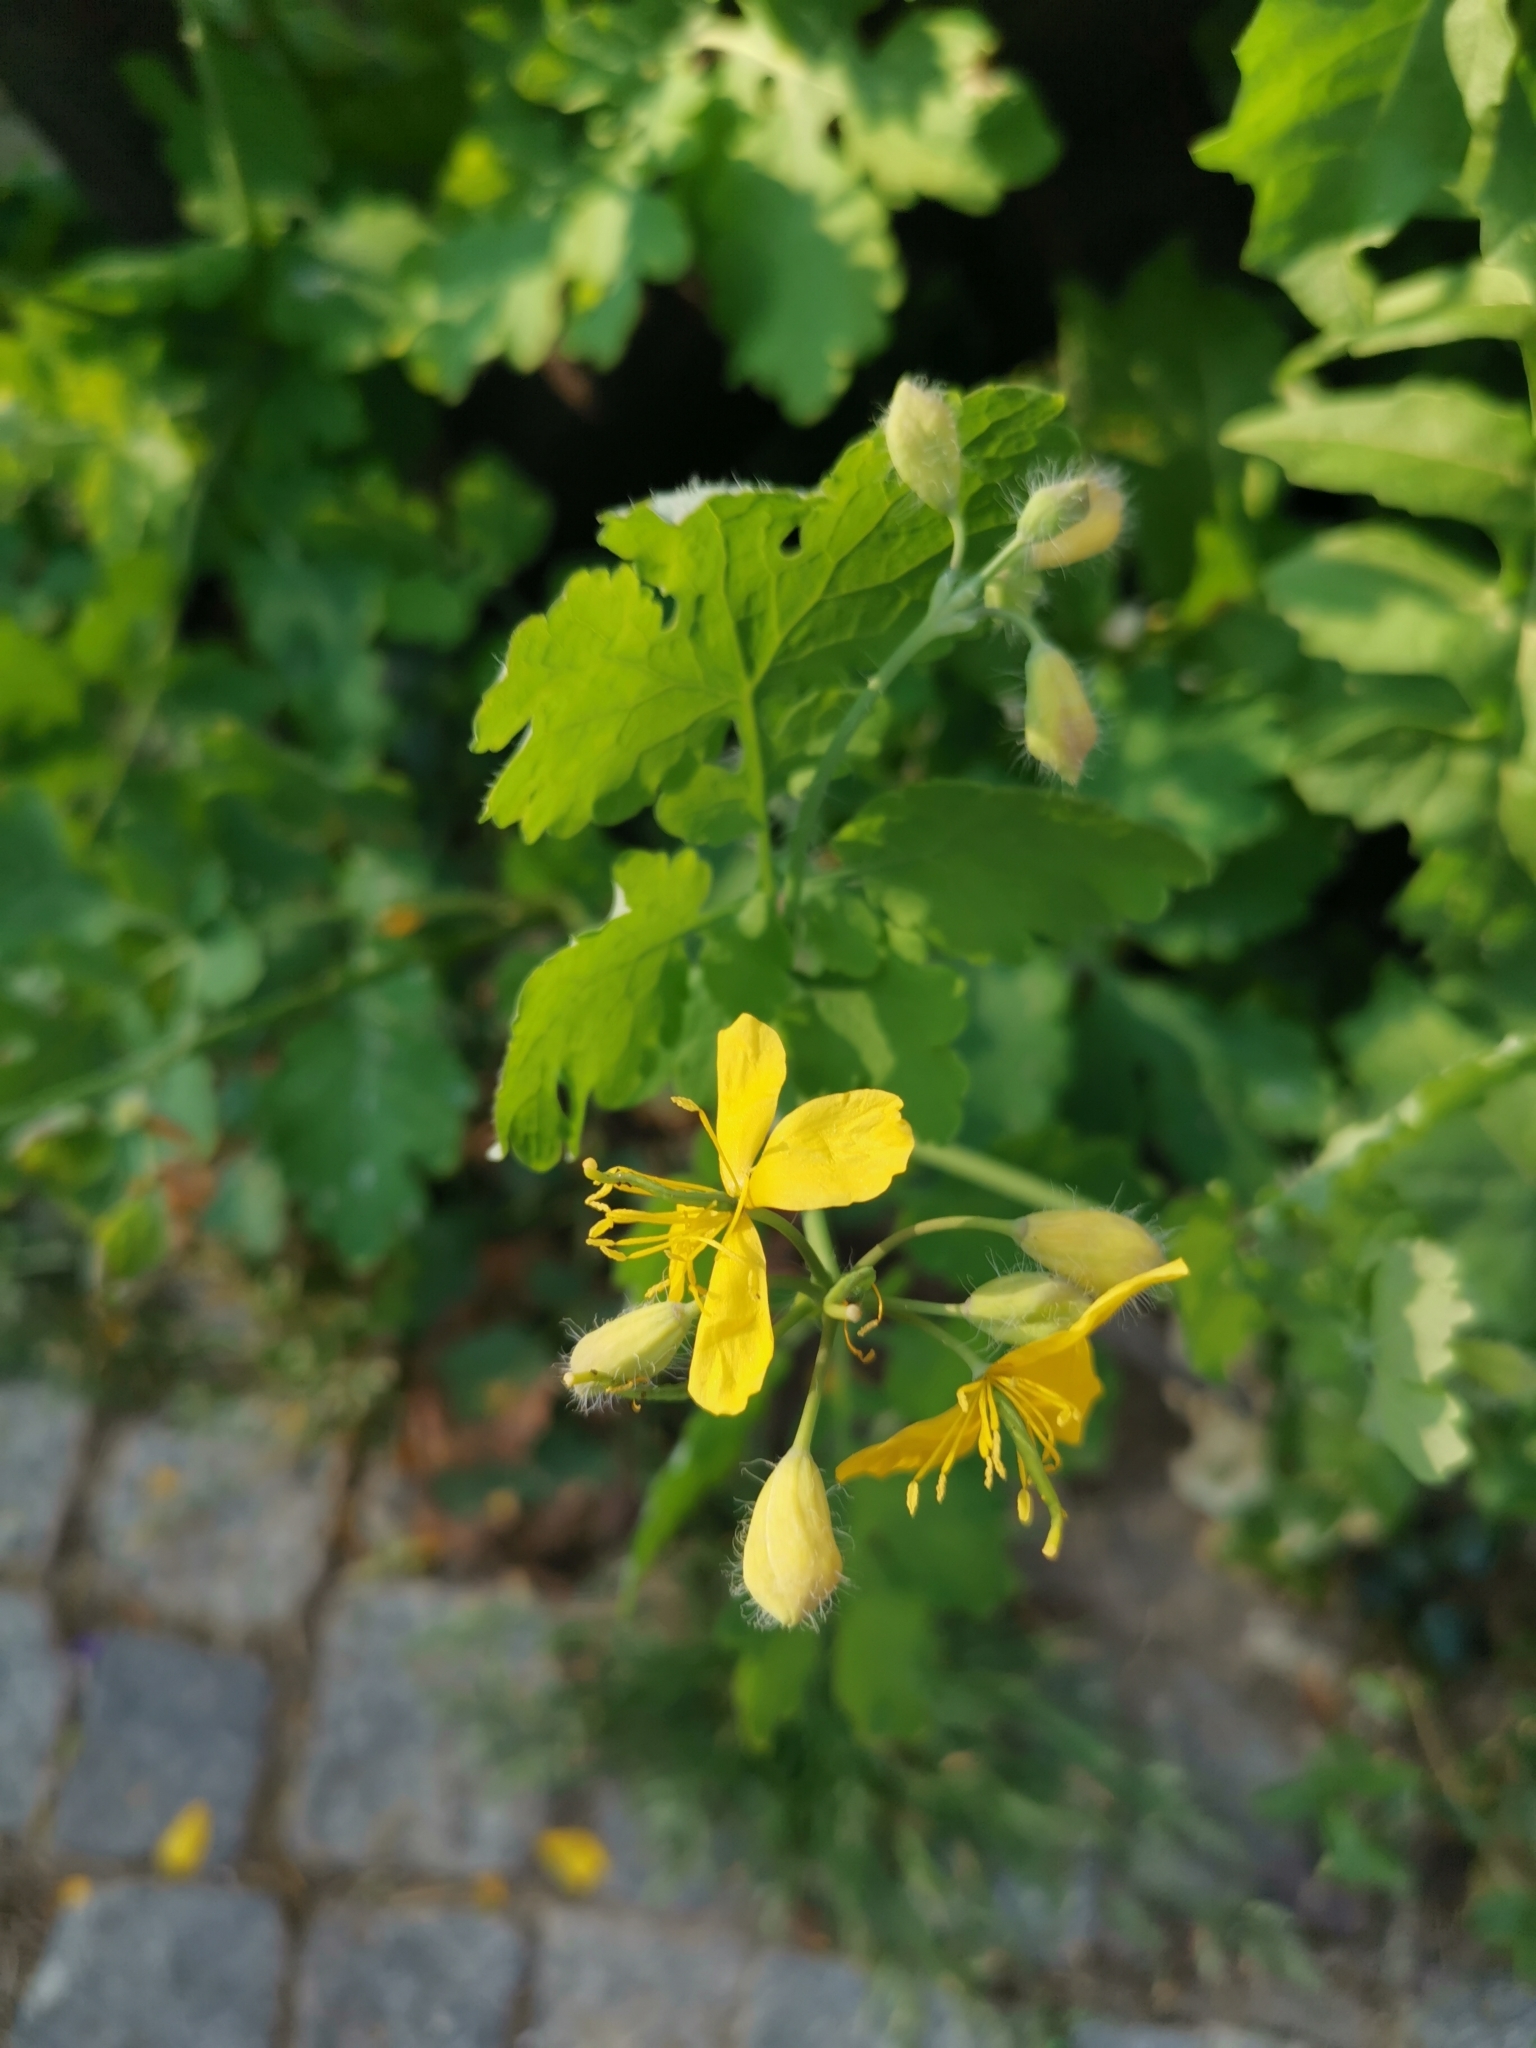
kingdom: Plantae
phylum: Tracheophyta
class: Magnoliopsida
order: Ranunculales
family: Papaveraceae
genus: Chelidonium
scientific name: Chelidonium majus
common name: Greater celandine
